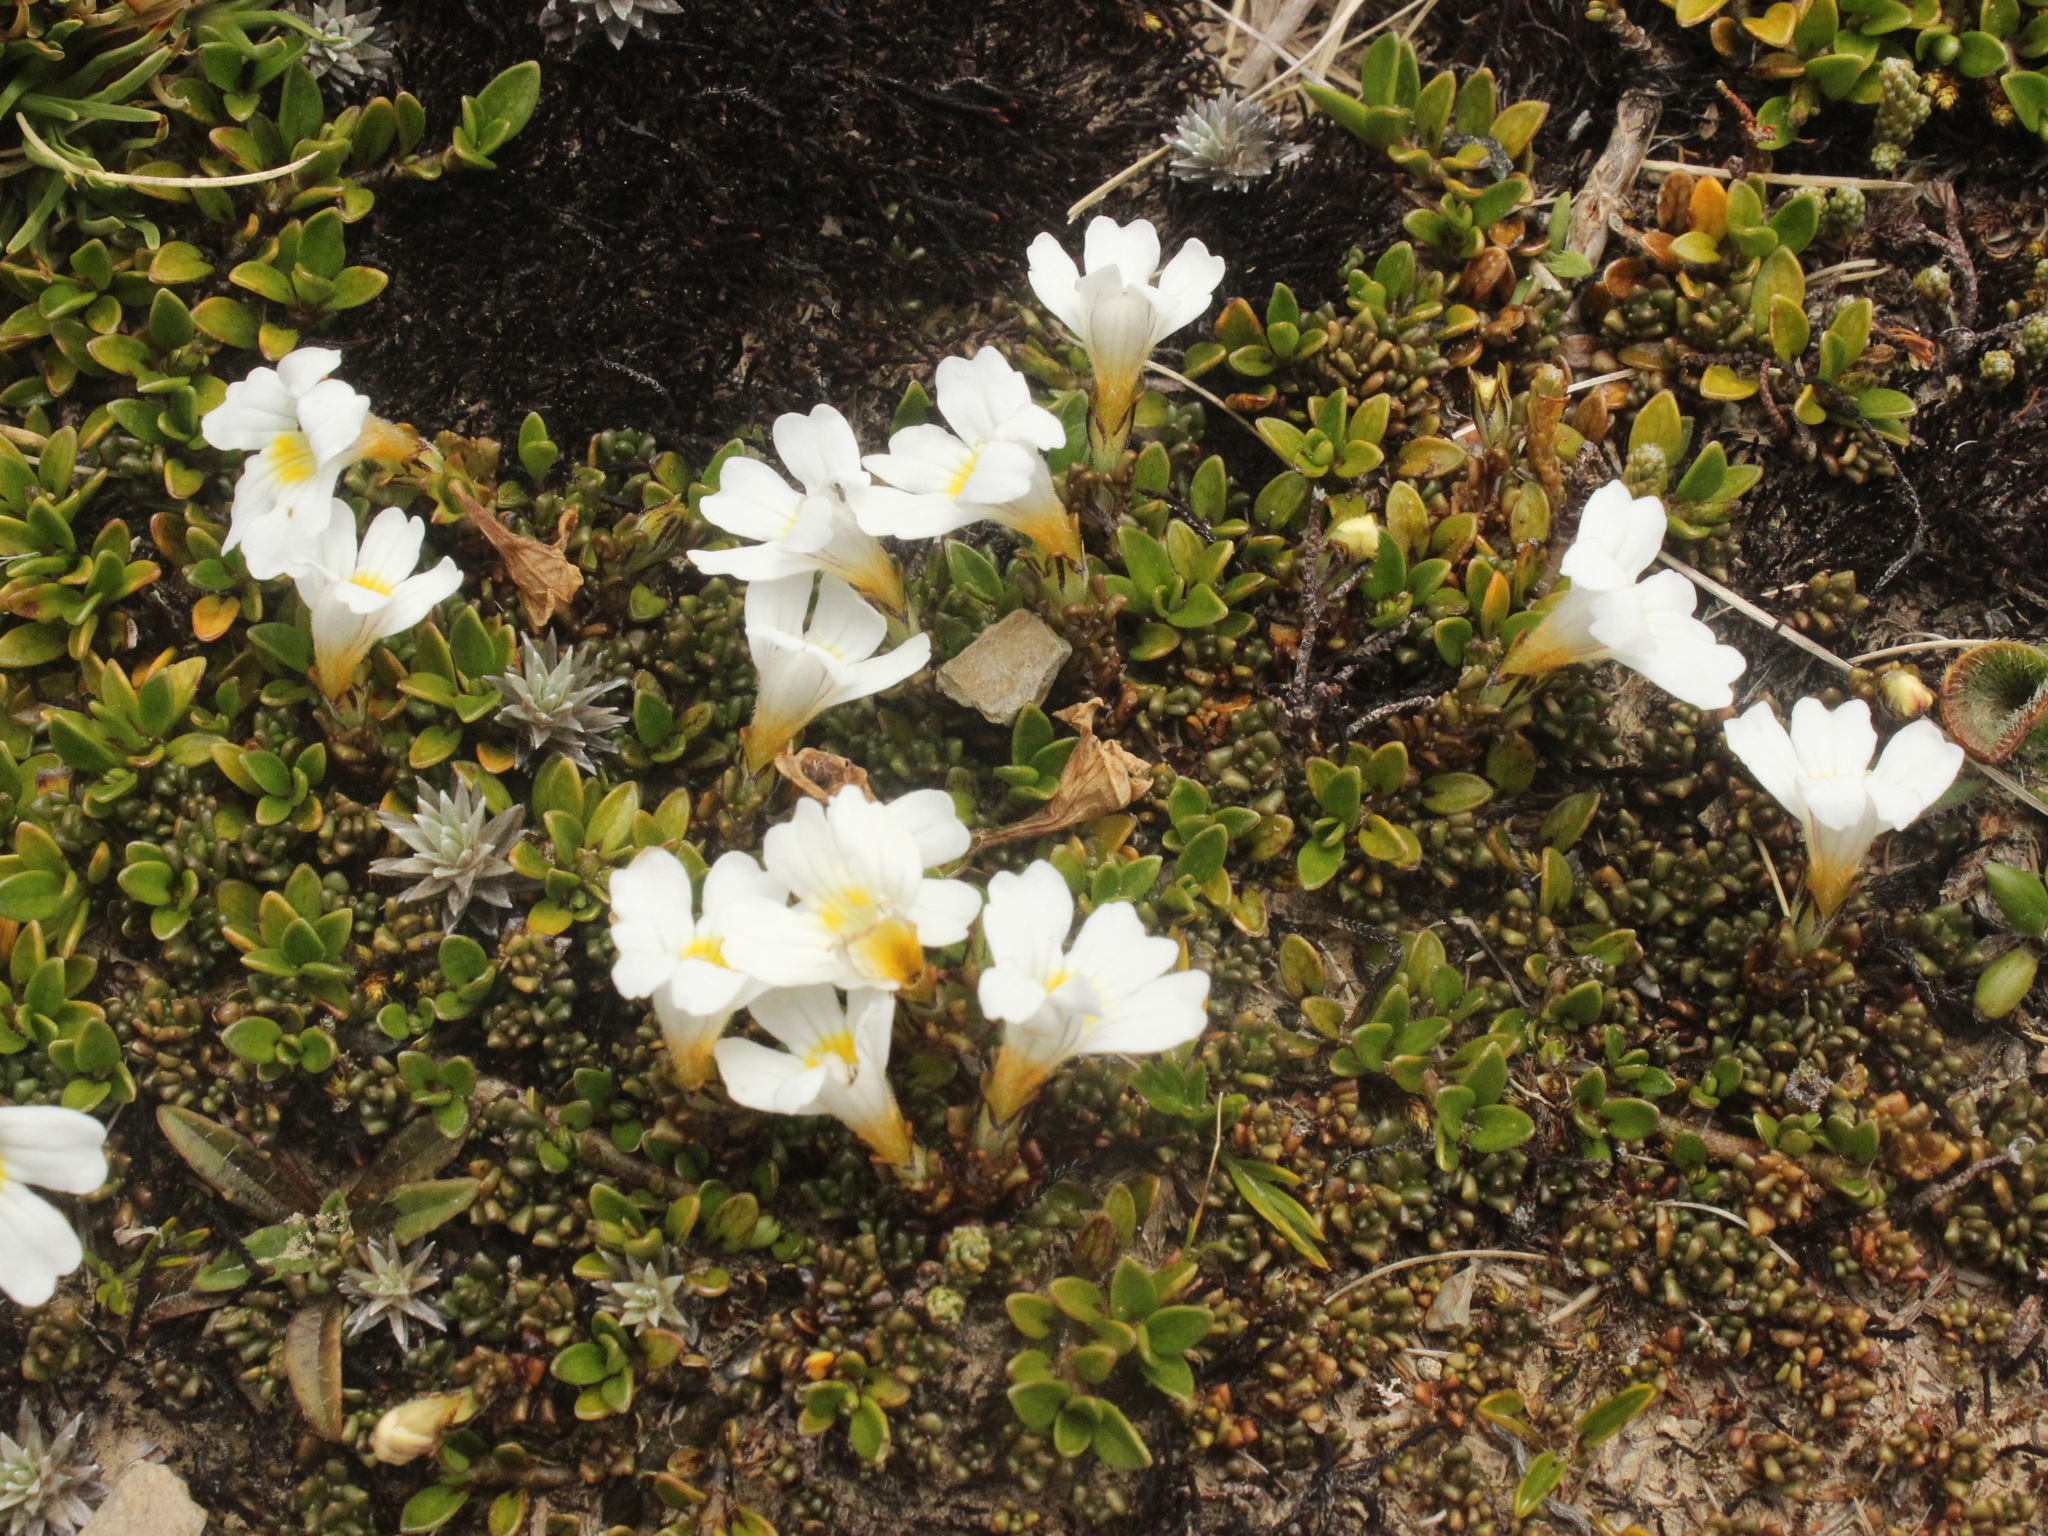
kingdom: Plantae
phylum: Tracheophyta
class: Magnoliopsida
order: Lamiales
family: Orobanchaceae
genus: Euphrasia
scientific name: Euphrasia revoluta
